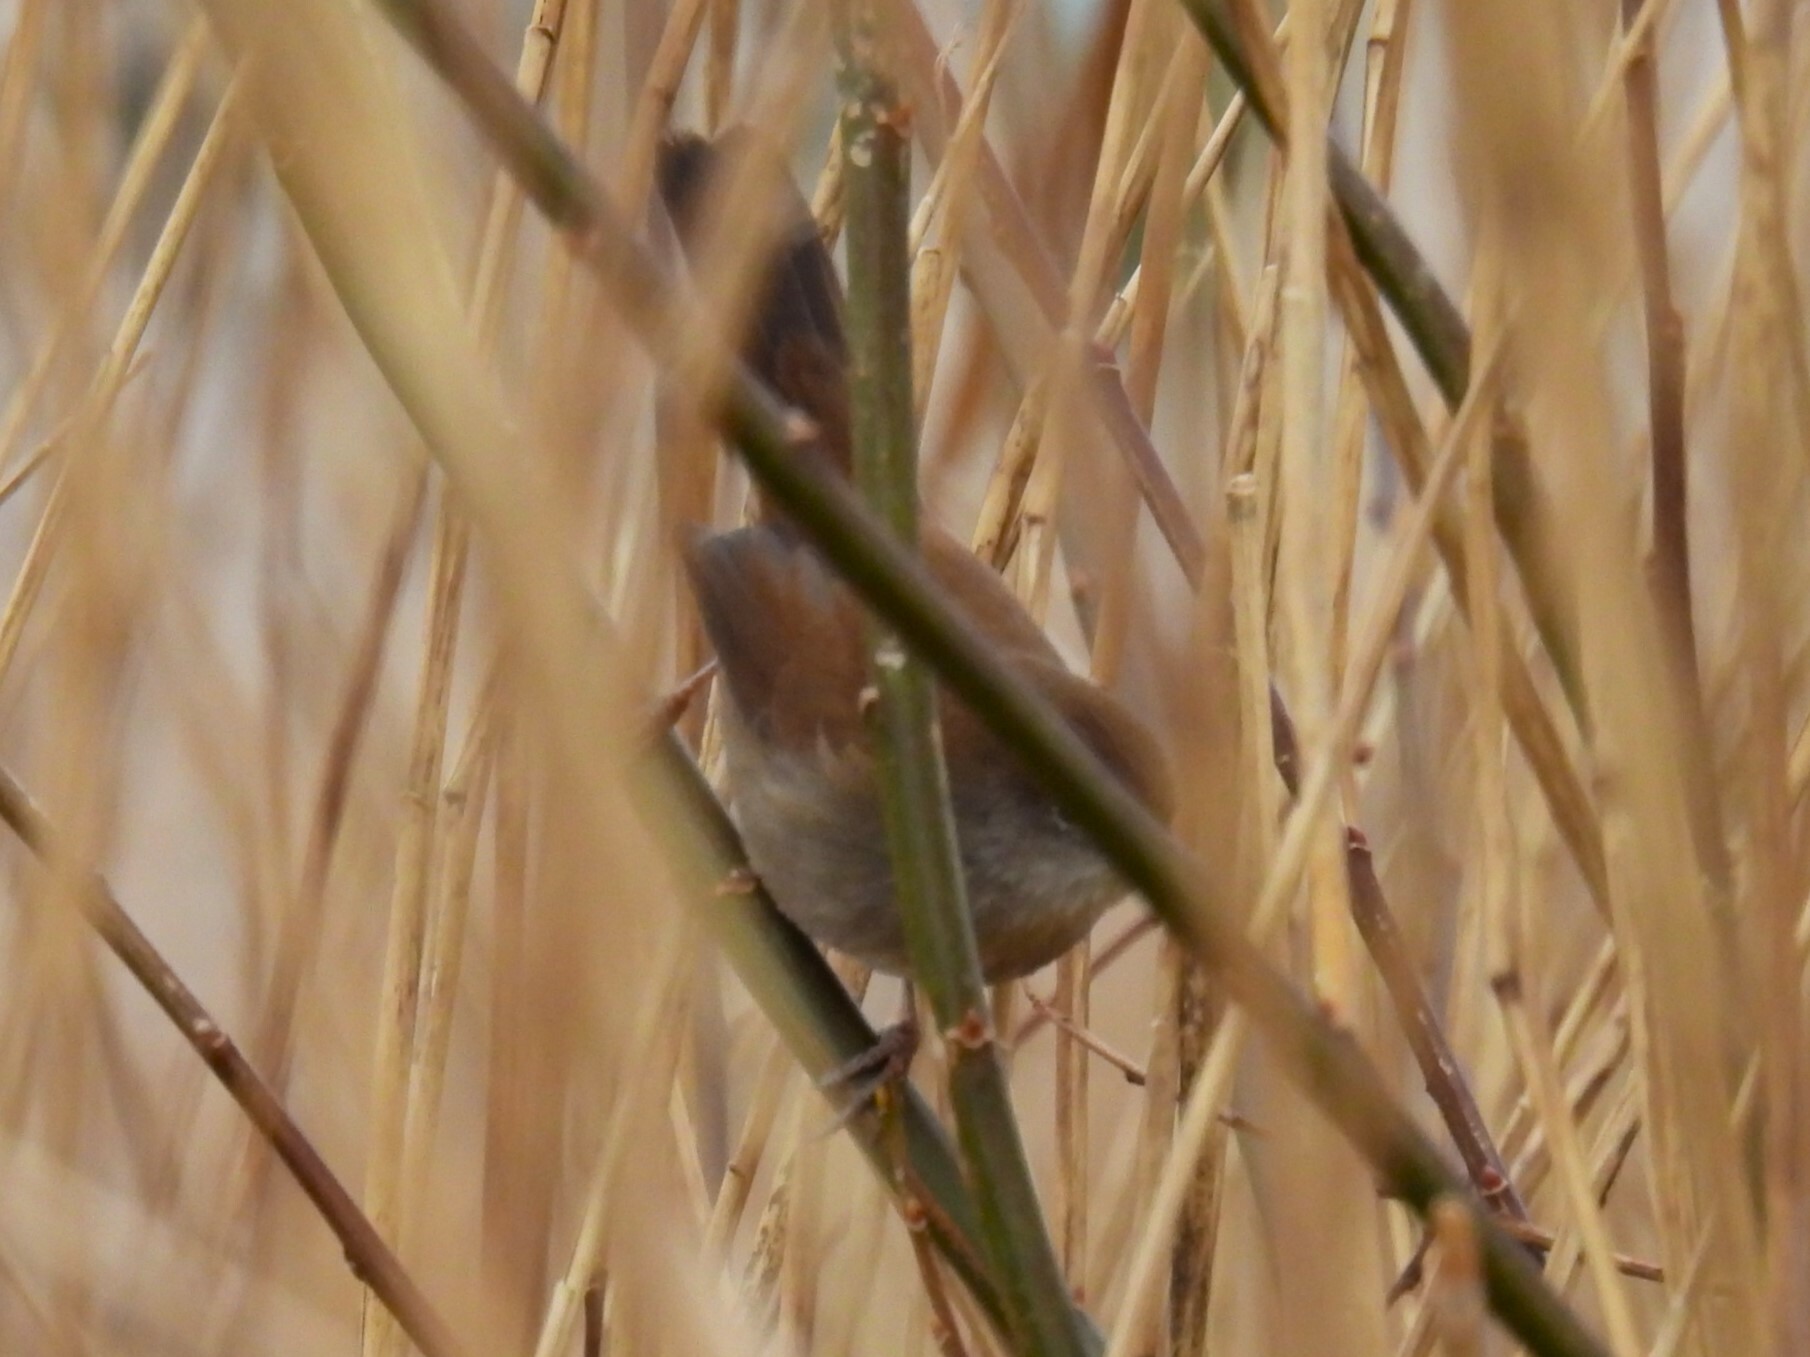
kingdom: Animalia
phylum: Chordata
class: Aves
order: Passeriformes
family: Cettiidae
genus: Cettia
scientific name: Cettia cetti
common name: Cetti's warbler
